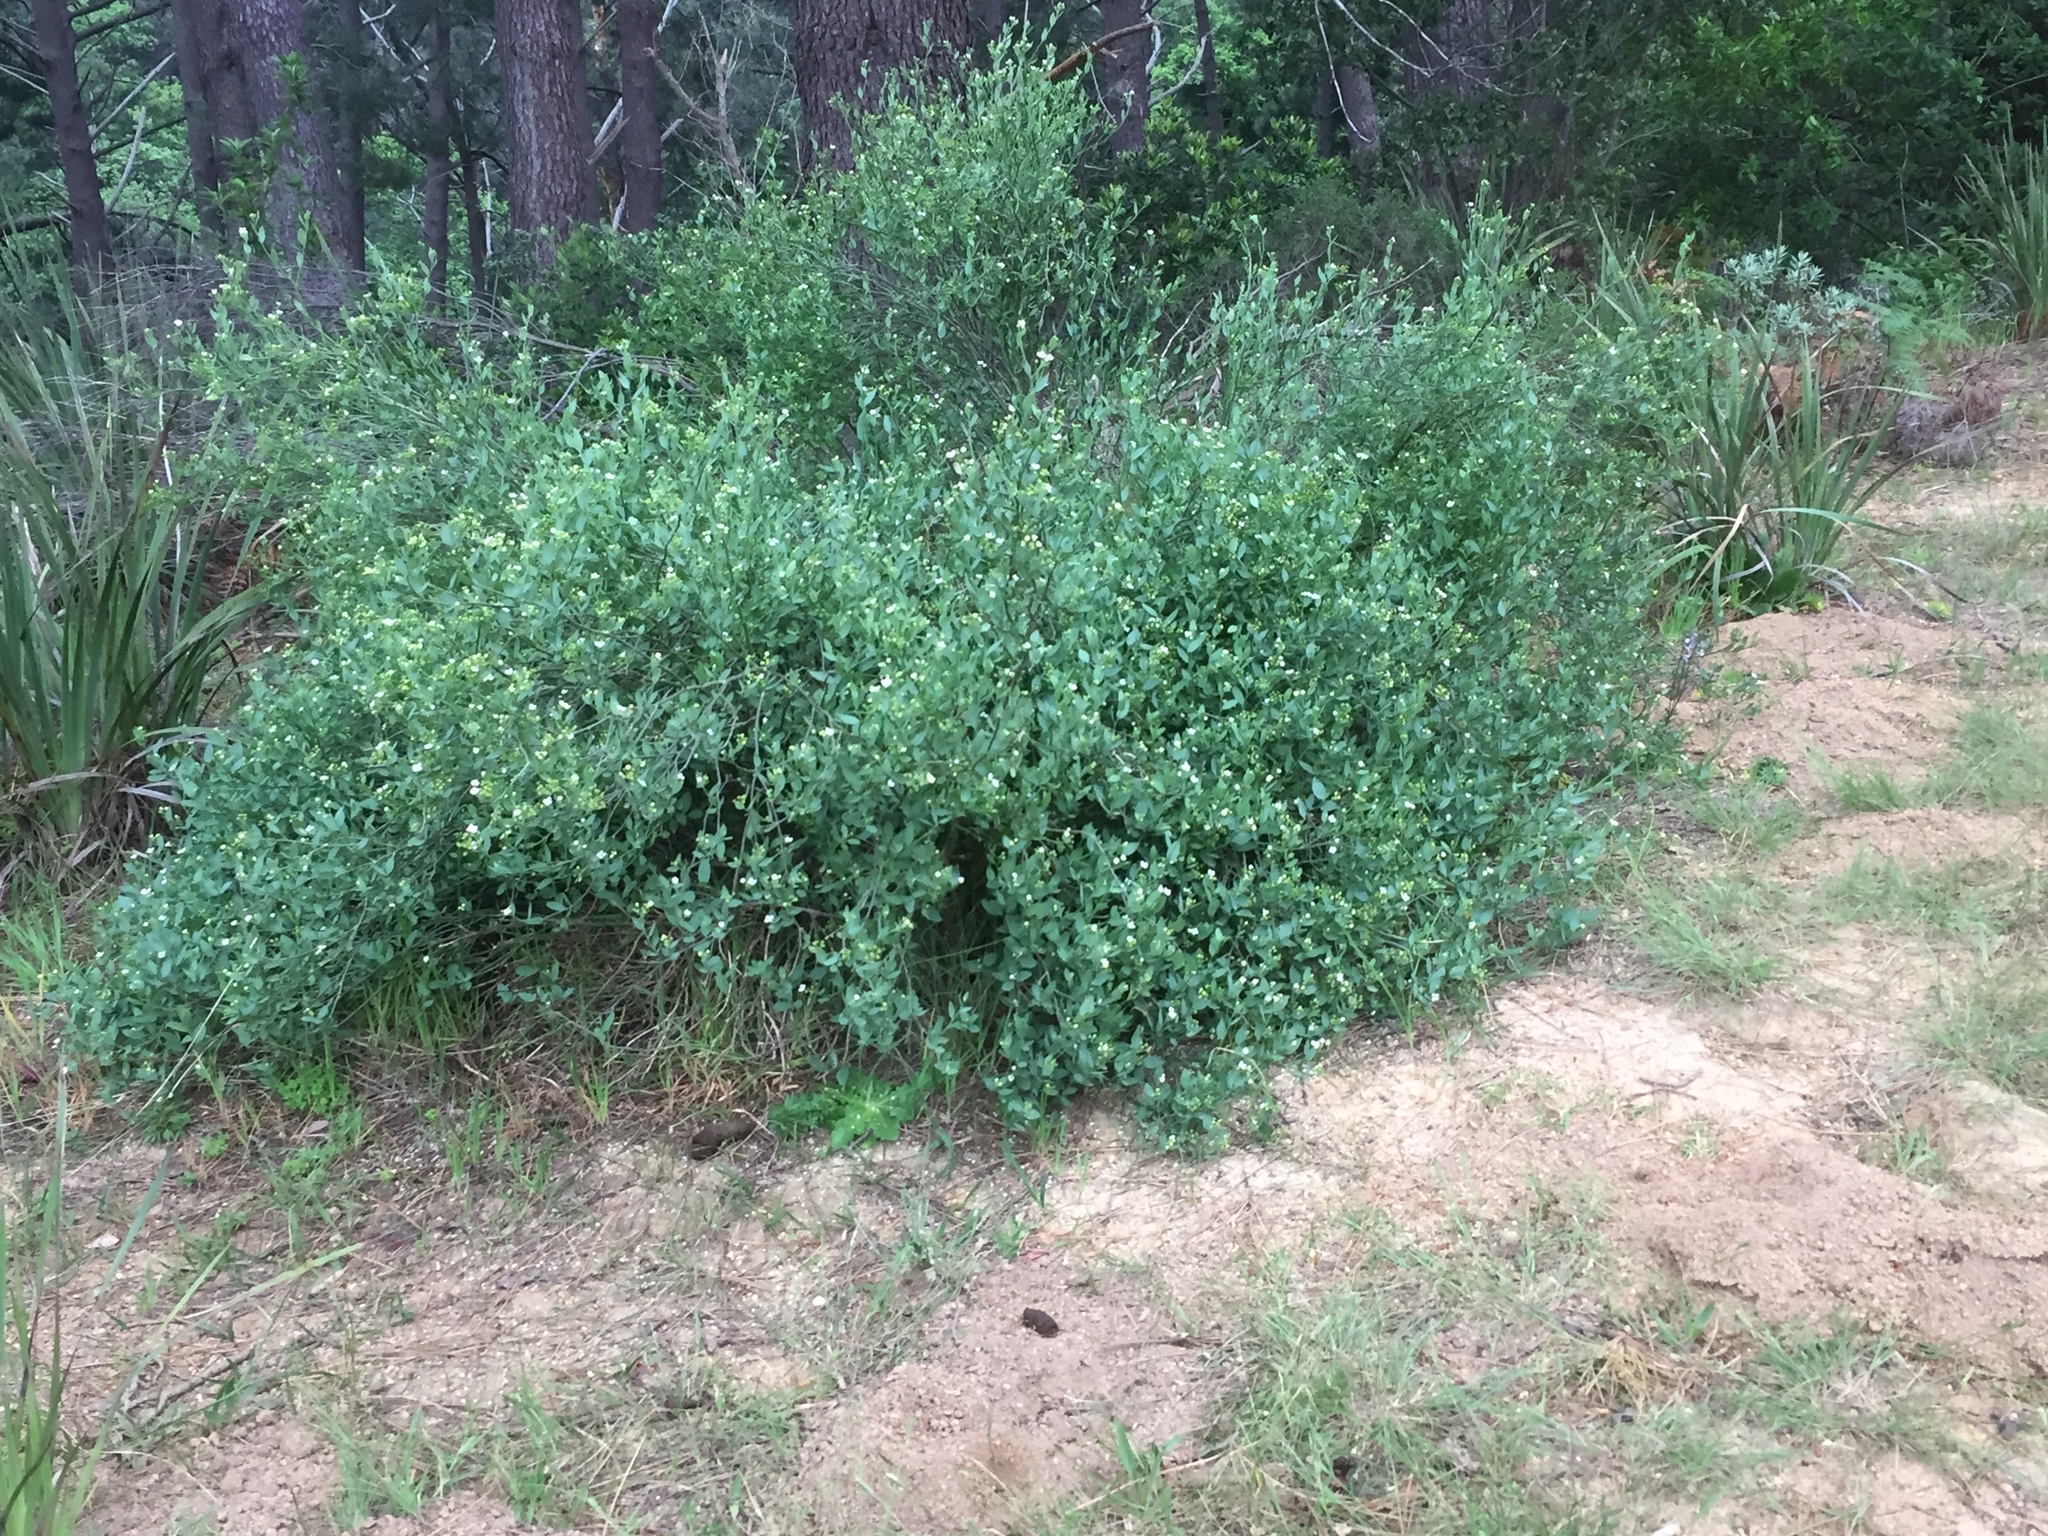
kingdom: Plantae
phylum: Tracheophyta
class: Magnoliopsida
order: Solanales
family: Montiniaceae
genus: Montinia
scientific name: Montinia caryophyllacea
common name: Wild clove-bush
